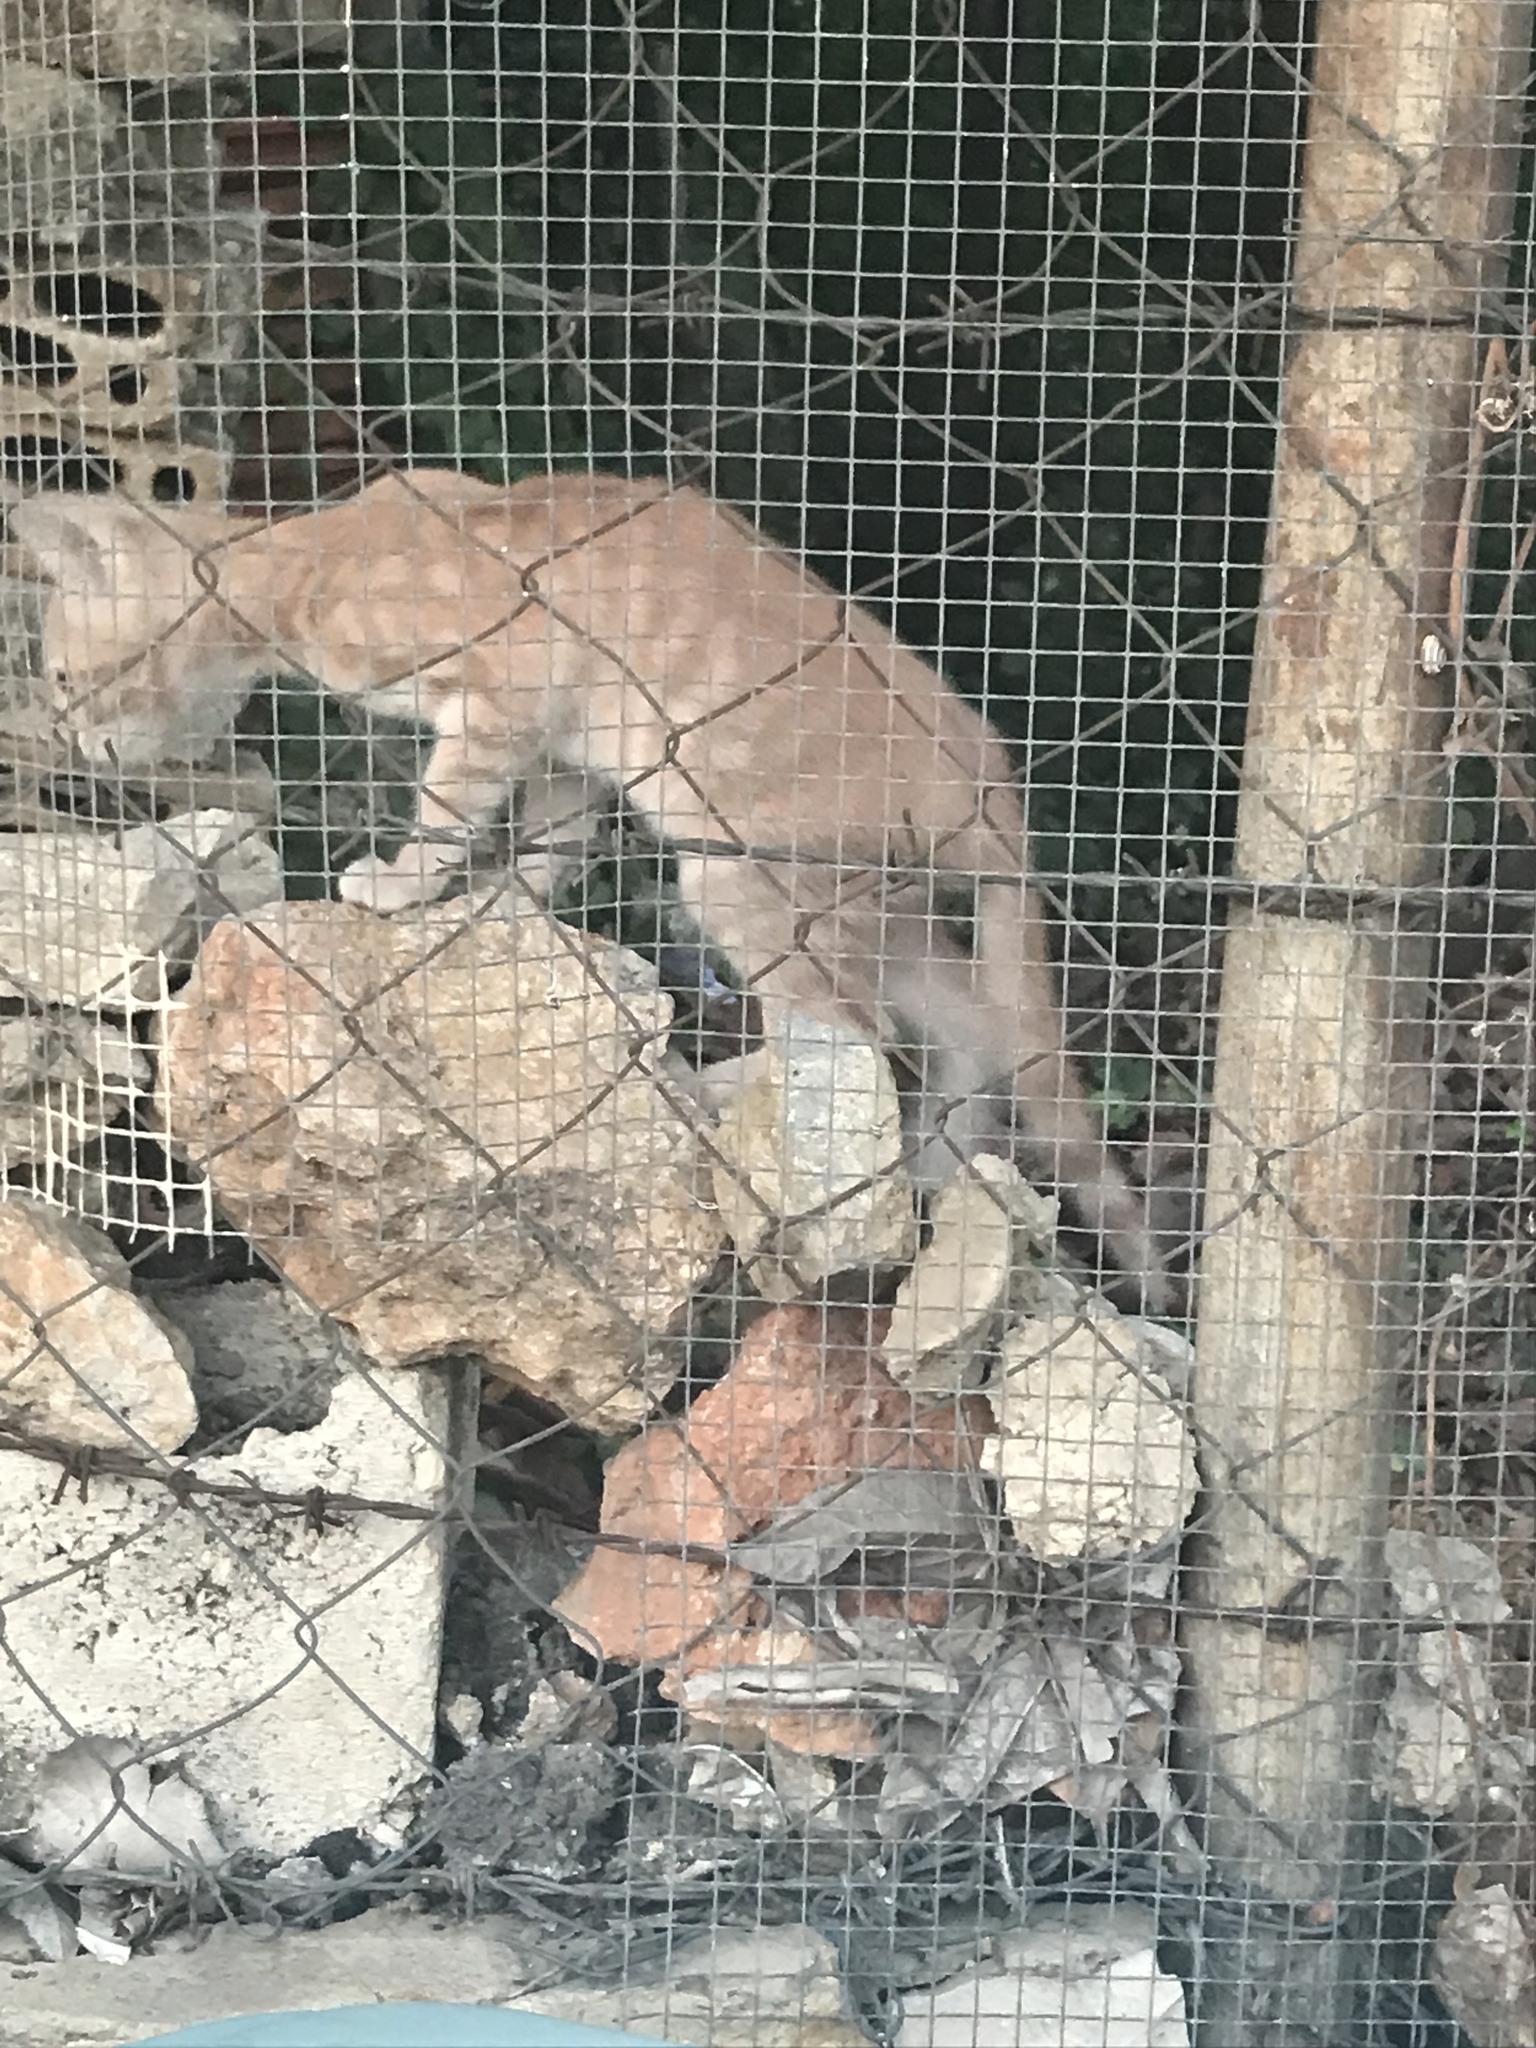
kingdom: Animalia
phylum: Chordata
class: Mammalia
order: Carnivora
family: Felidae
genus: Felis
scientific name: Felis catus
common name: Domestic cat
